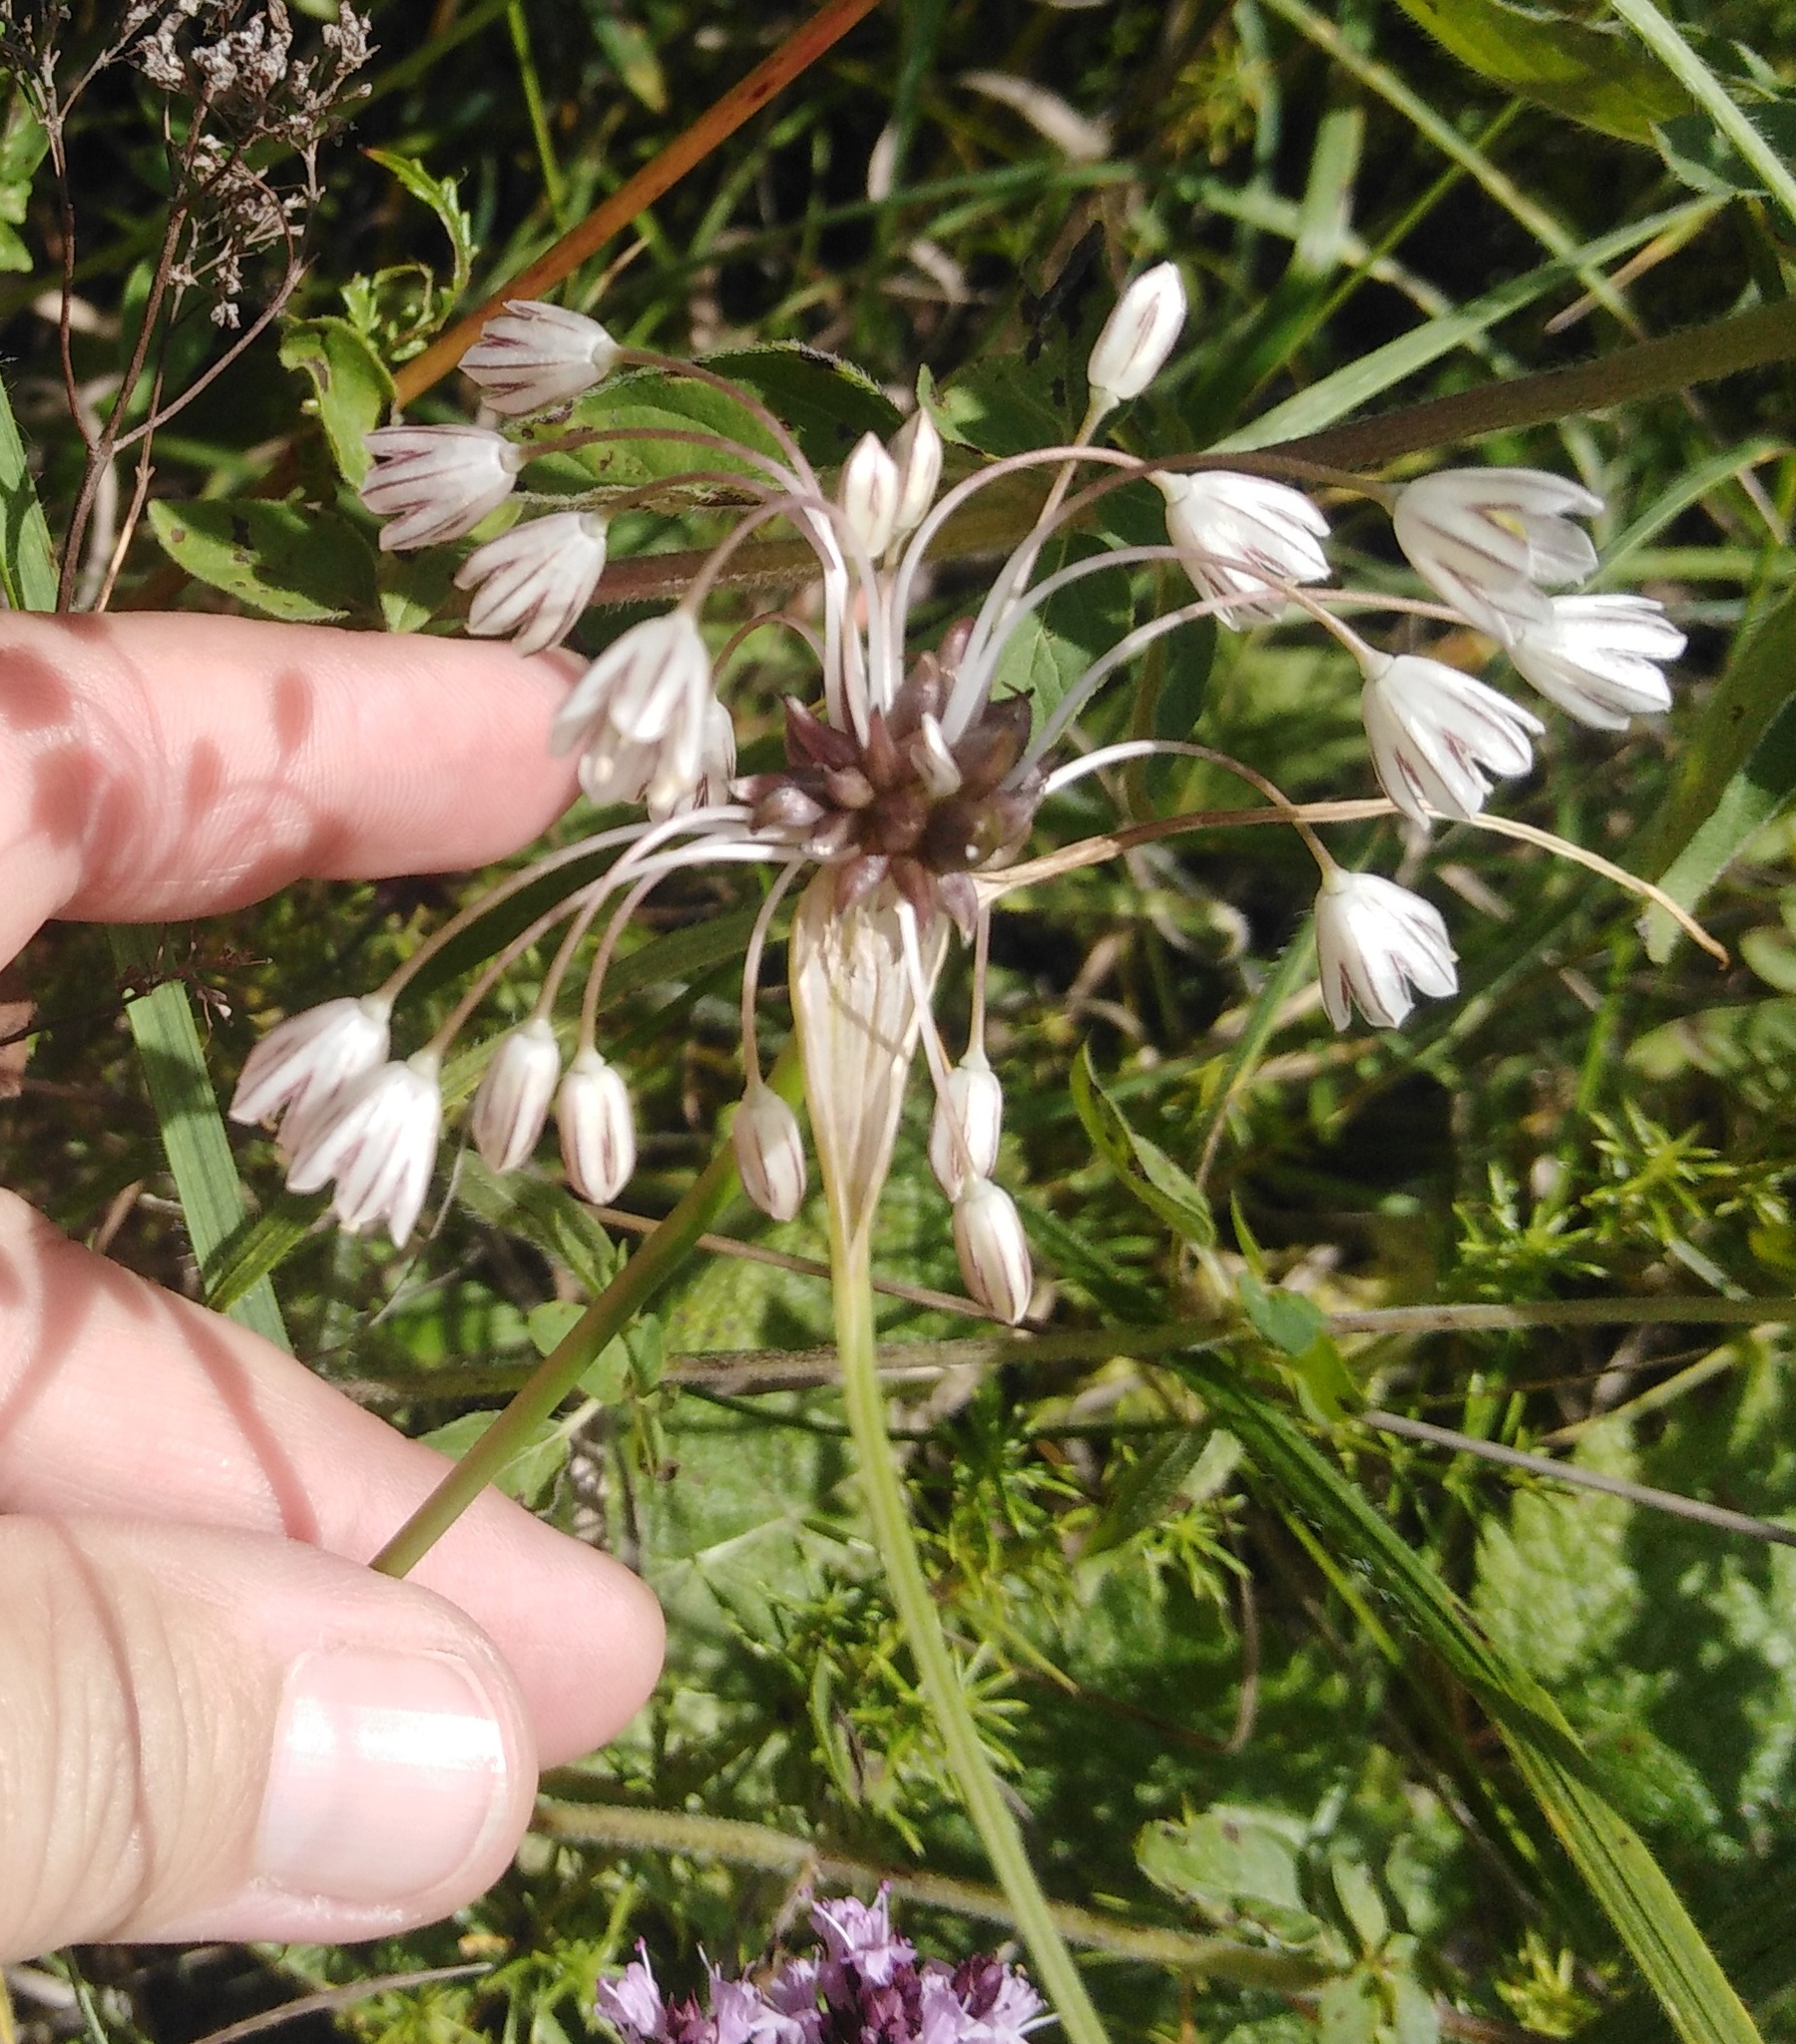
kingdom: Plantae
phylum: Tracheophyta
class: Liliopsida
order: Asparagales
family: Amaryllidaceae
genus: Allium
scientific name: Allium oleraceum
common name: Field garlic
